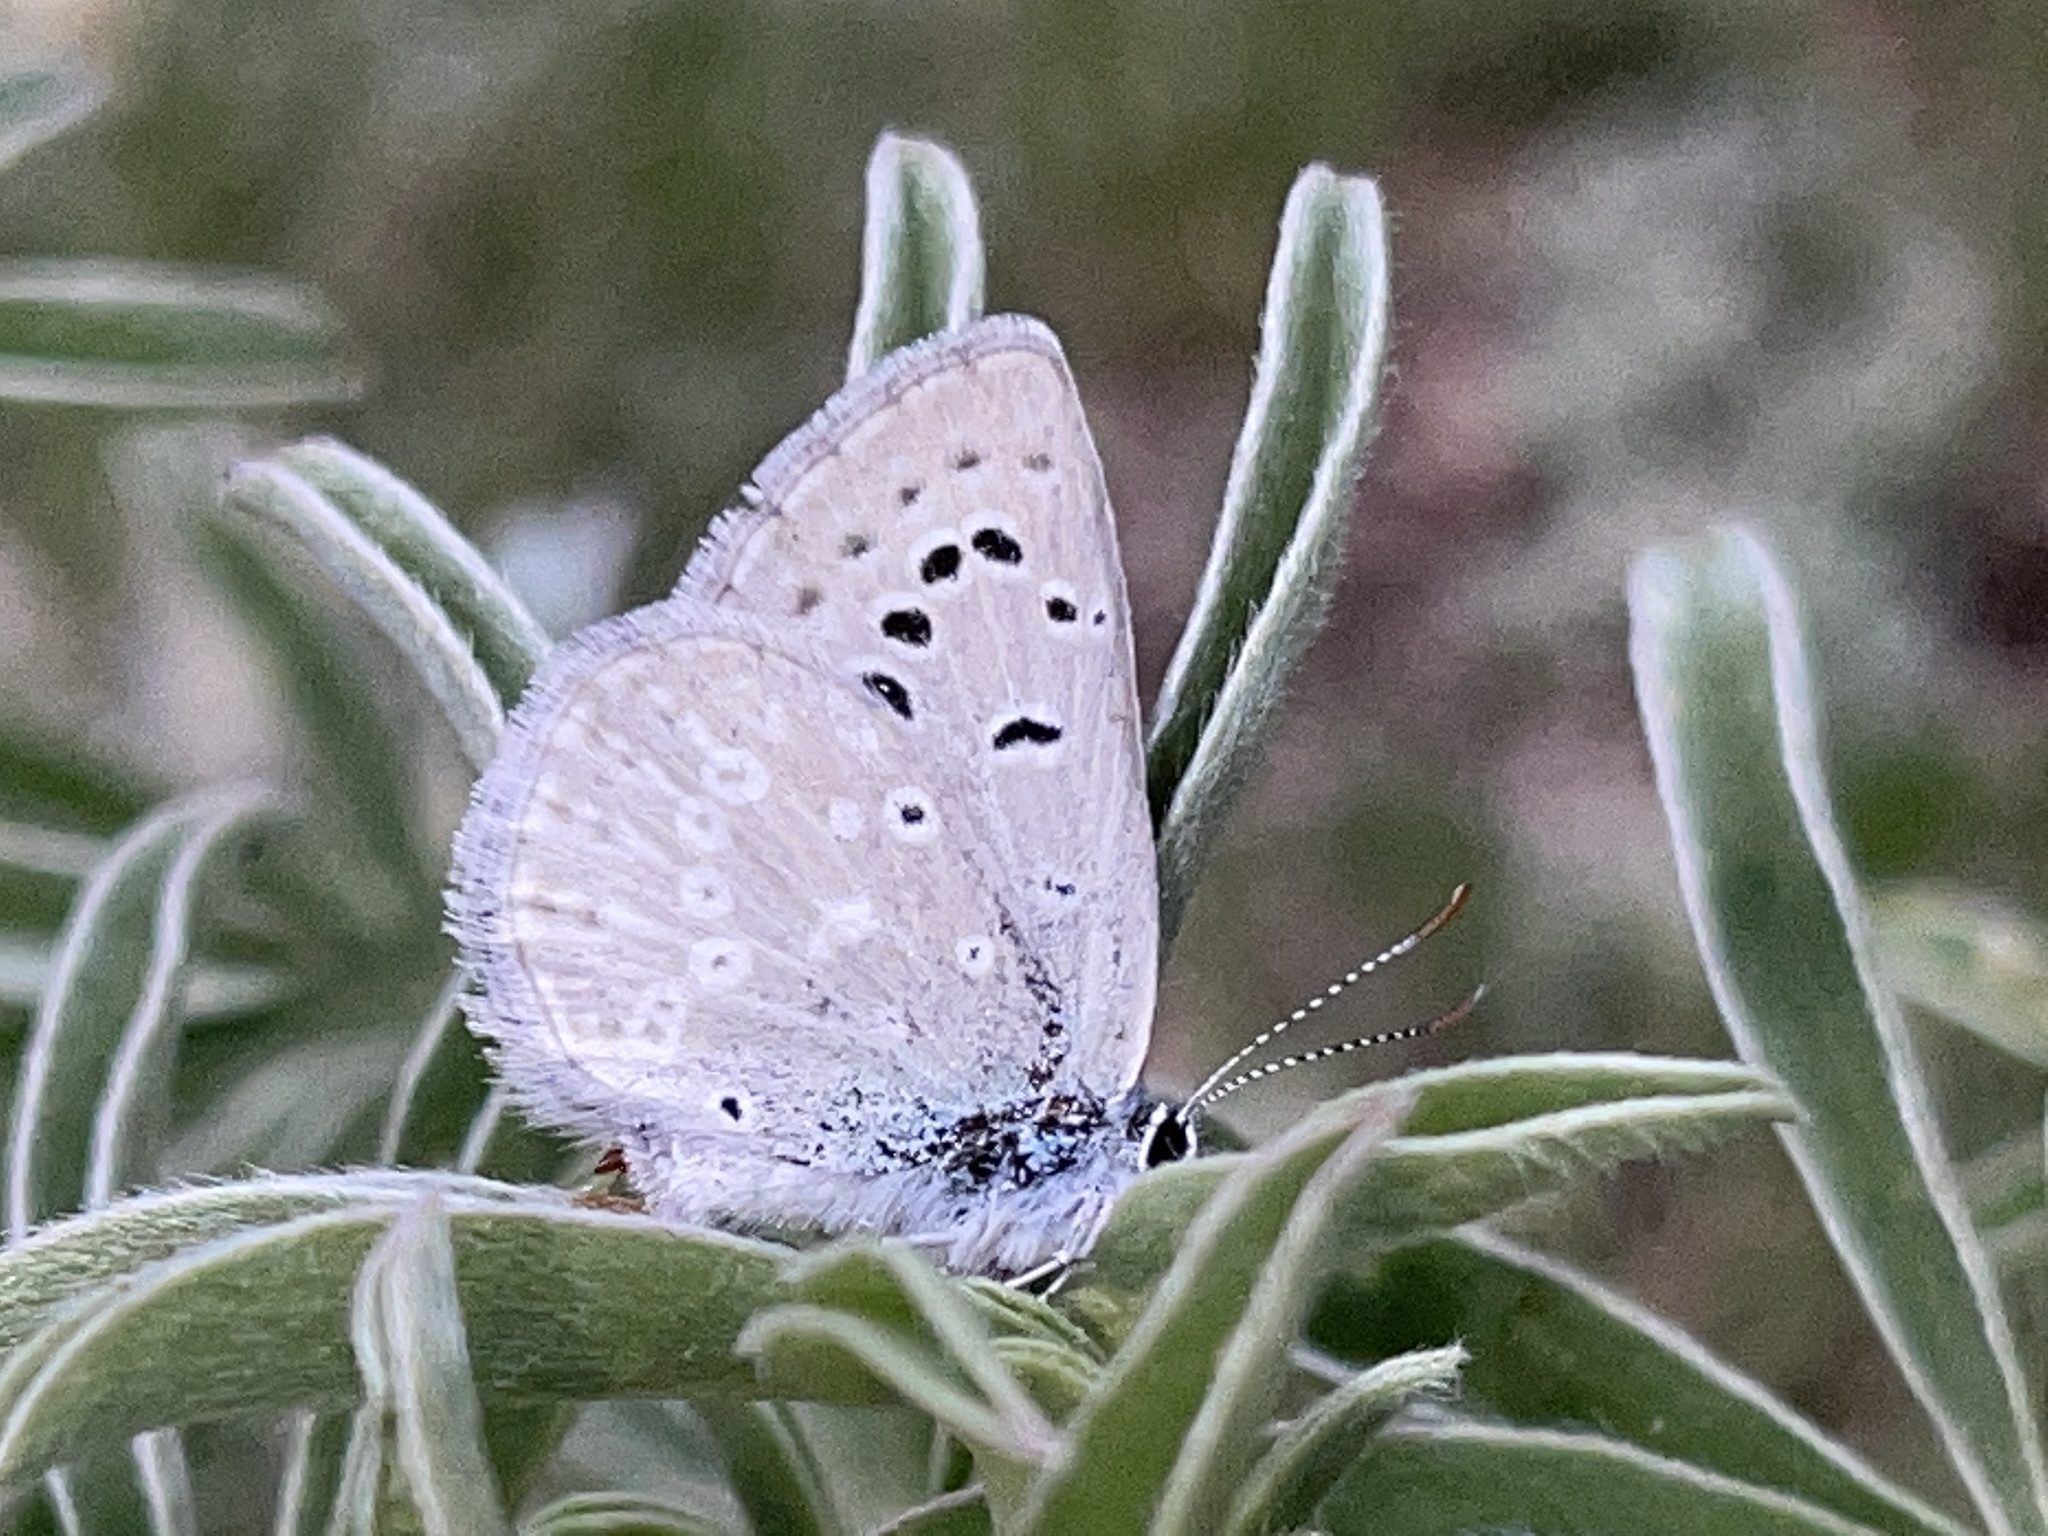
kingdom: Animalia
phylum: Arthropoda
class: Insecta
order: Lepidoptera
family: Lycaenidae
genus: Icaricia
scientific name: Icaricia icarioides
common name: Boisduval's blue
